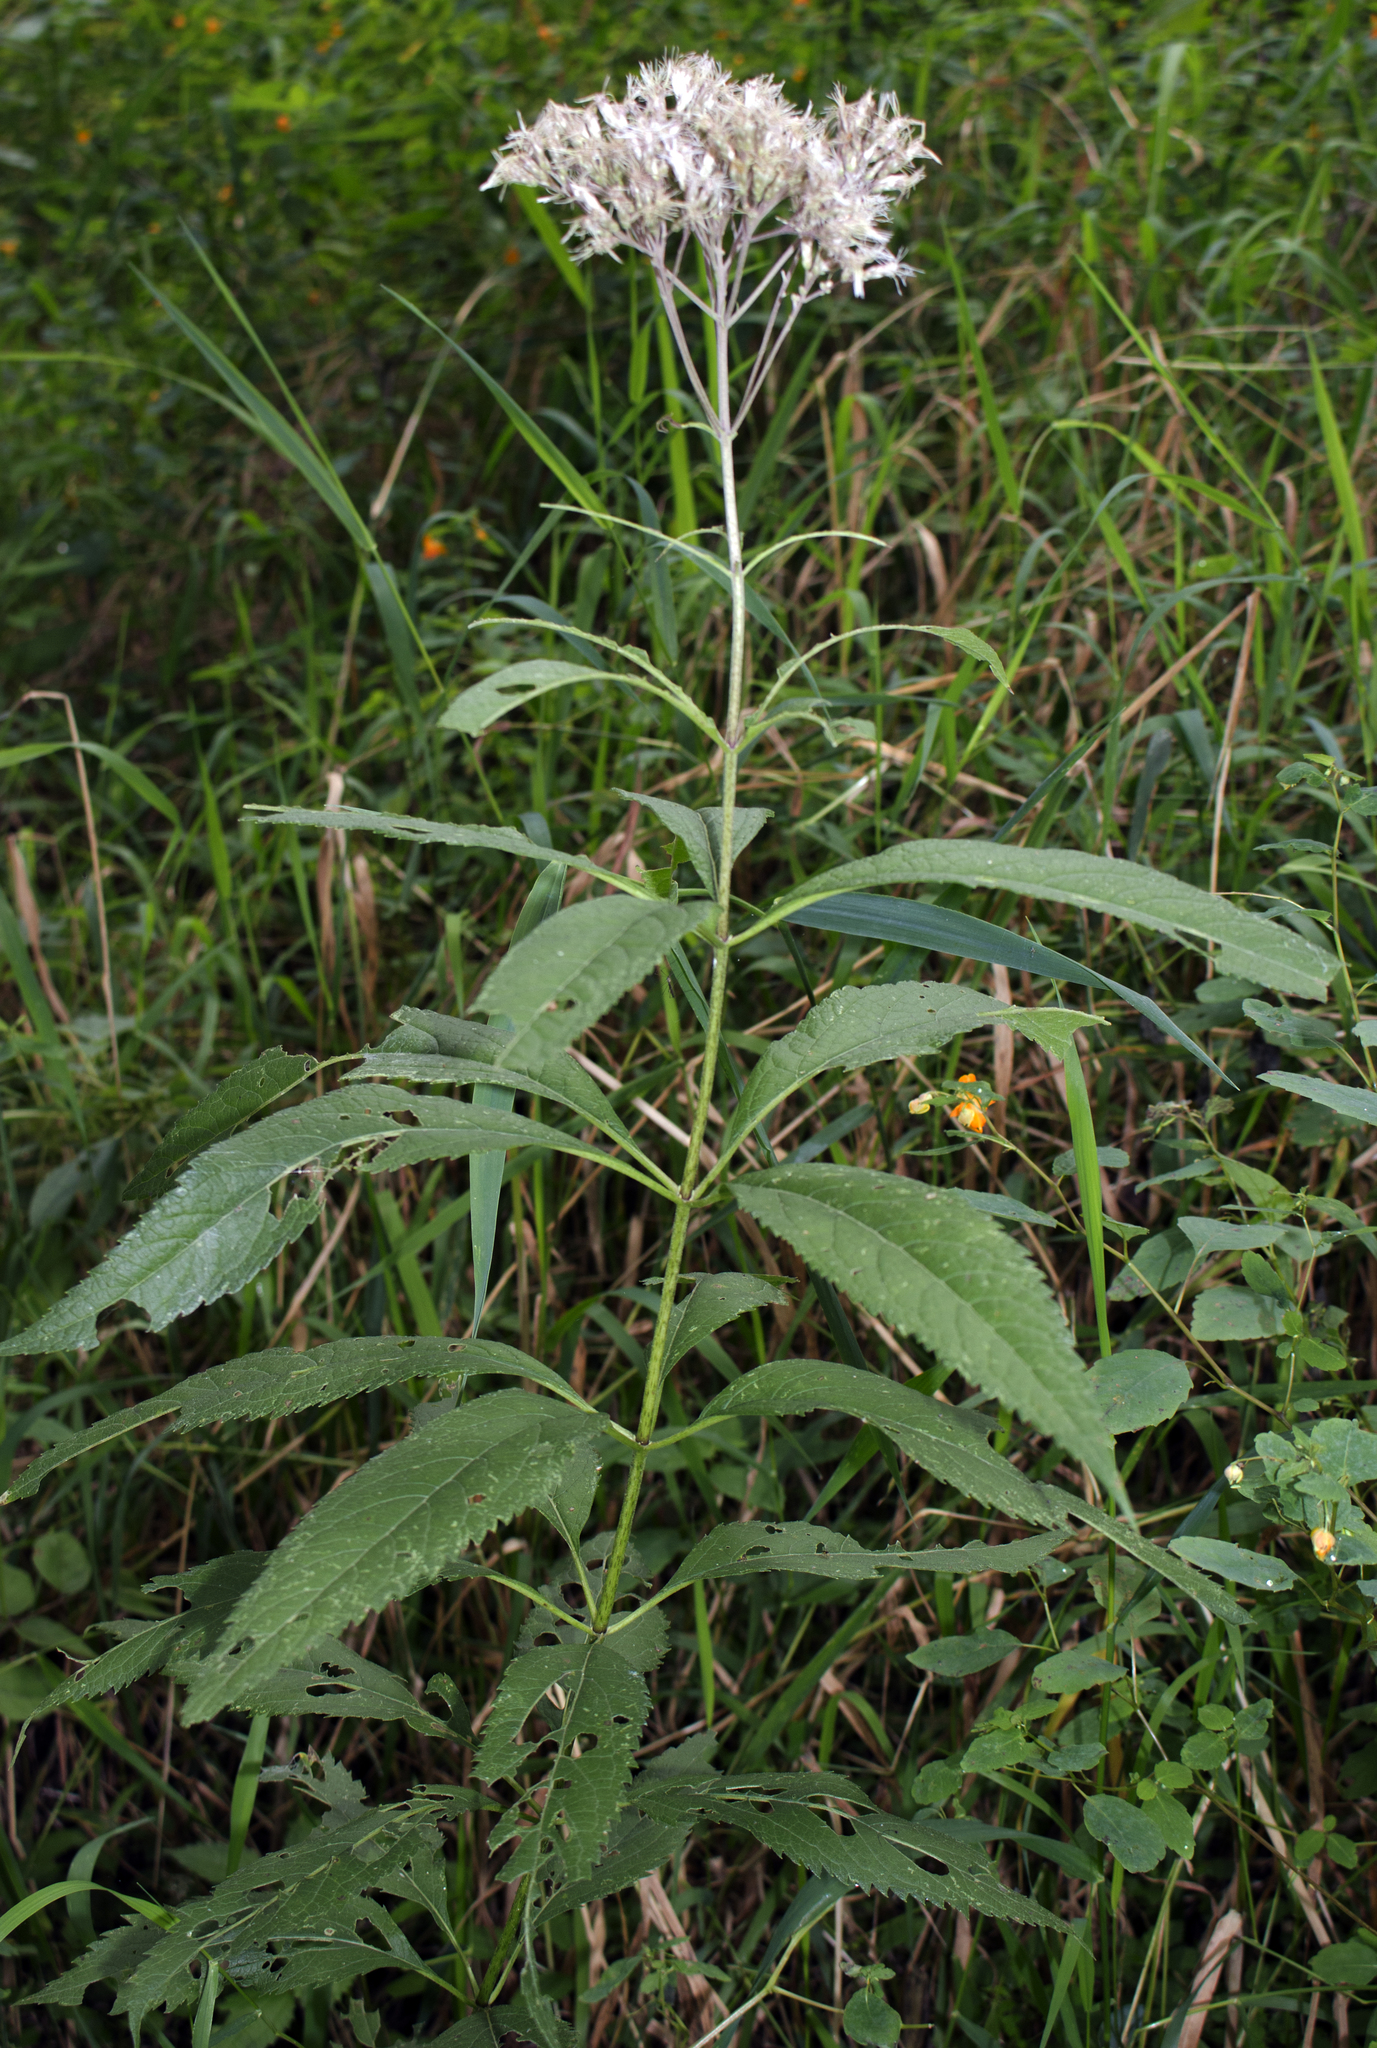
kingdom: Plantae
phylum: Tracheophyta
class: Magnoliopsida
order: Asterales
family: Asteraceae
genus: Eutrochium
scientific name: Eutrochium purpureum
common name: Gravelroot
